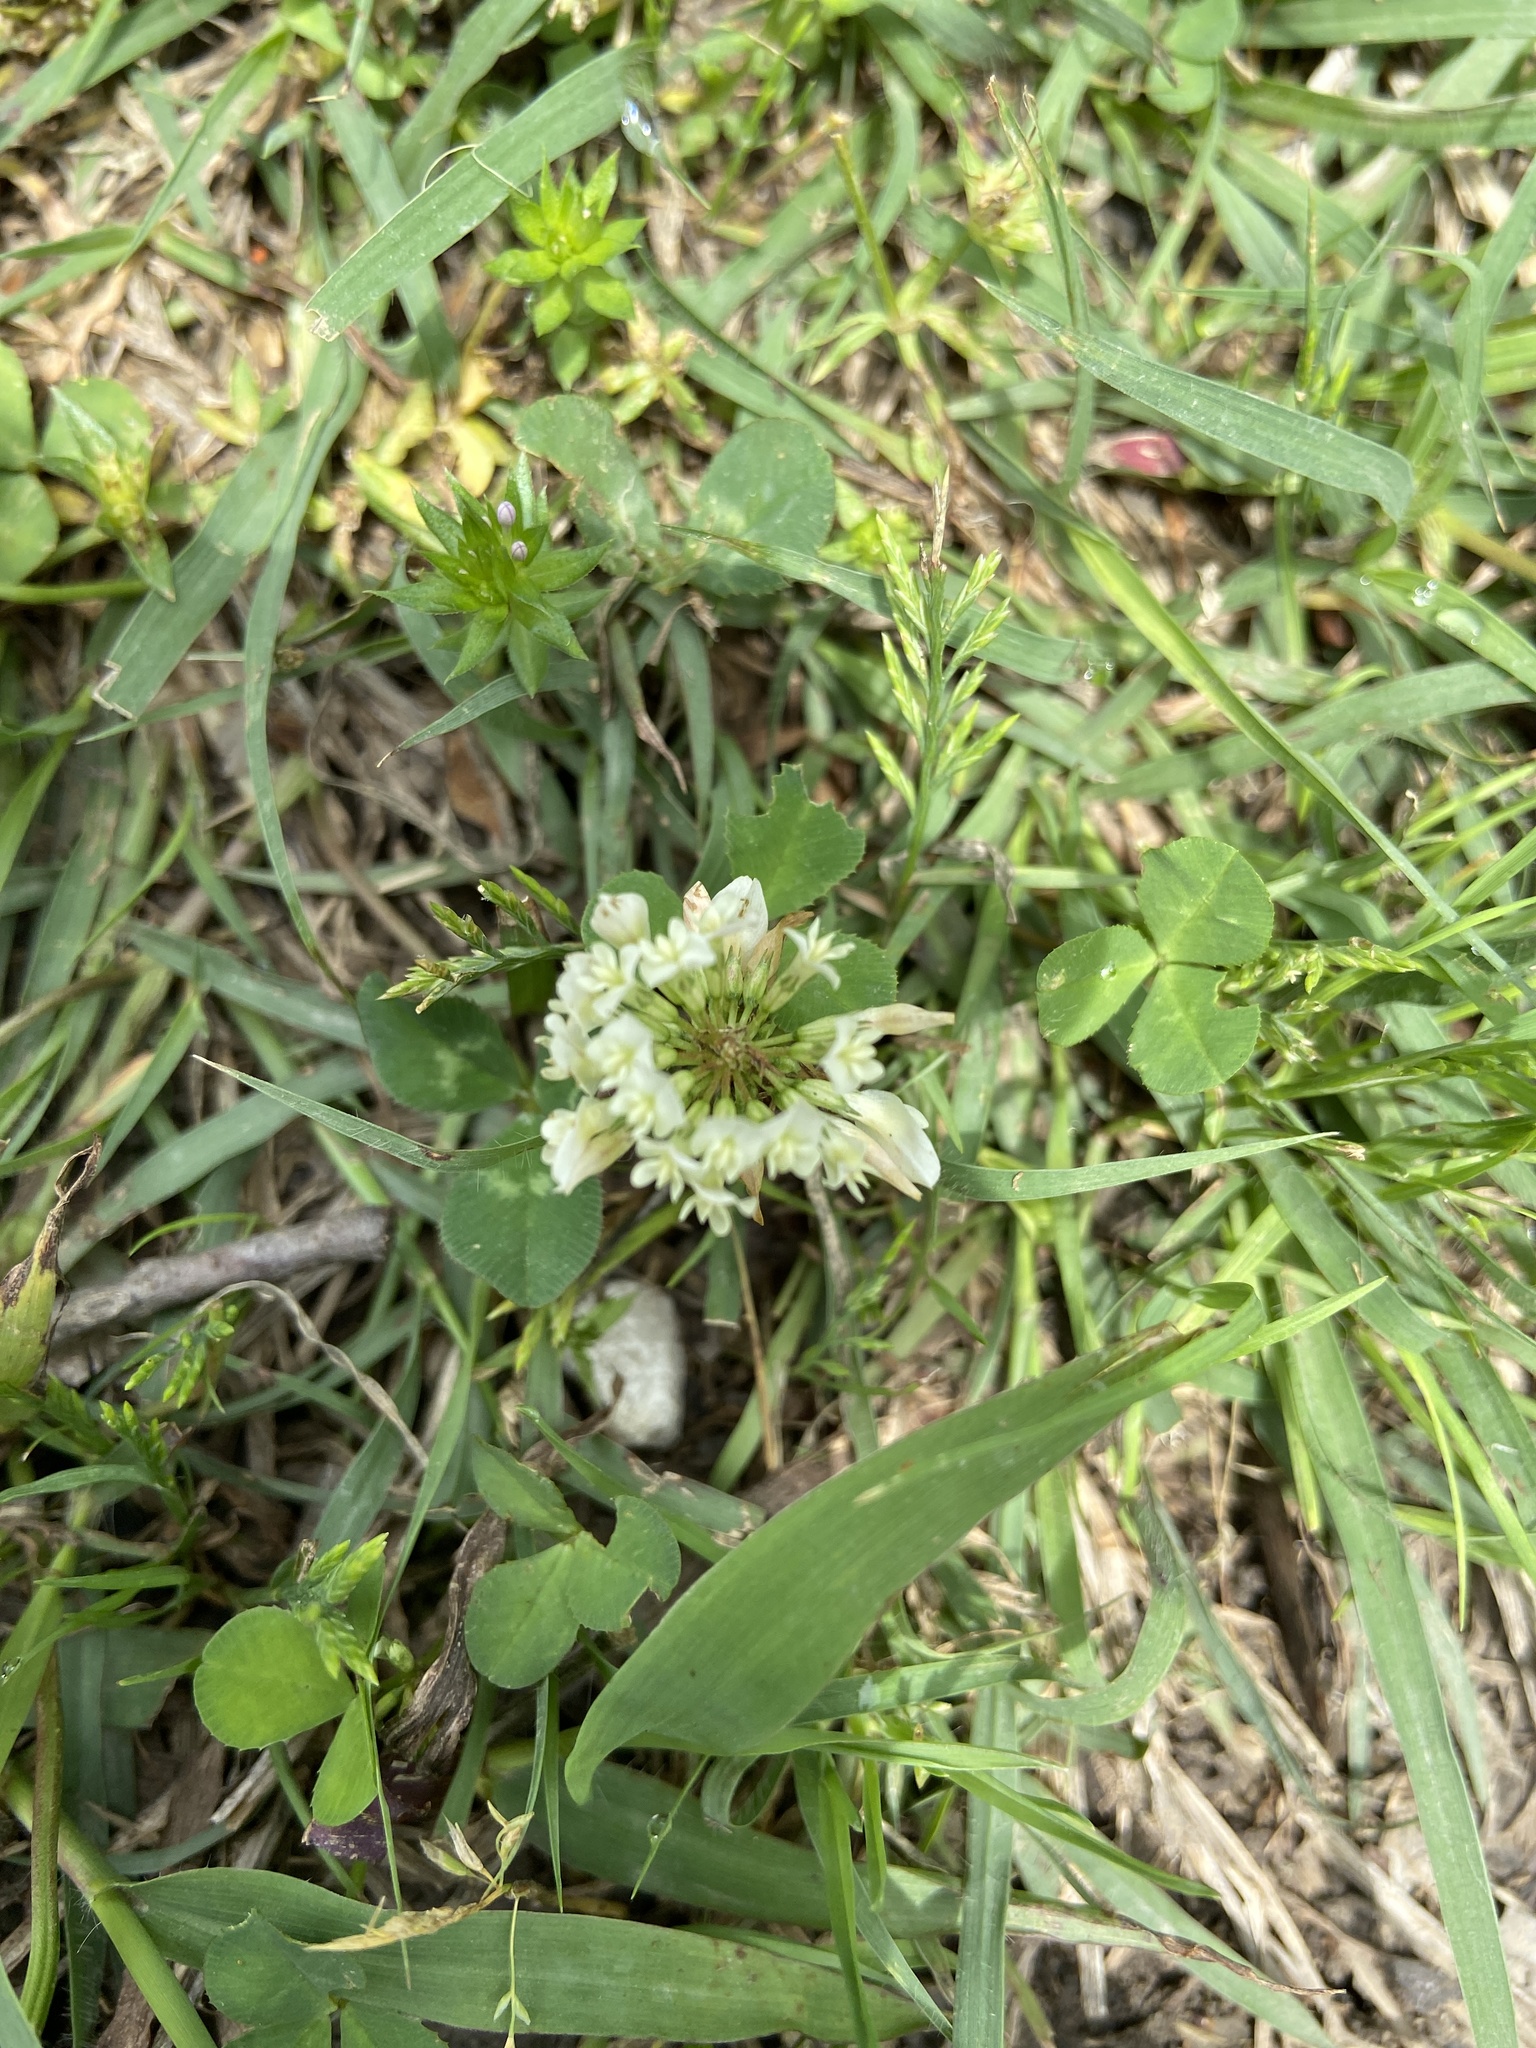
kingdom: Plantae
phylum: Tracheophyta
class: Magnoliopsida
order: Fabales
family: Fabaceae
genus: Trifolium
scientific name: Trifolium repens
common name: White clover
